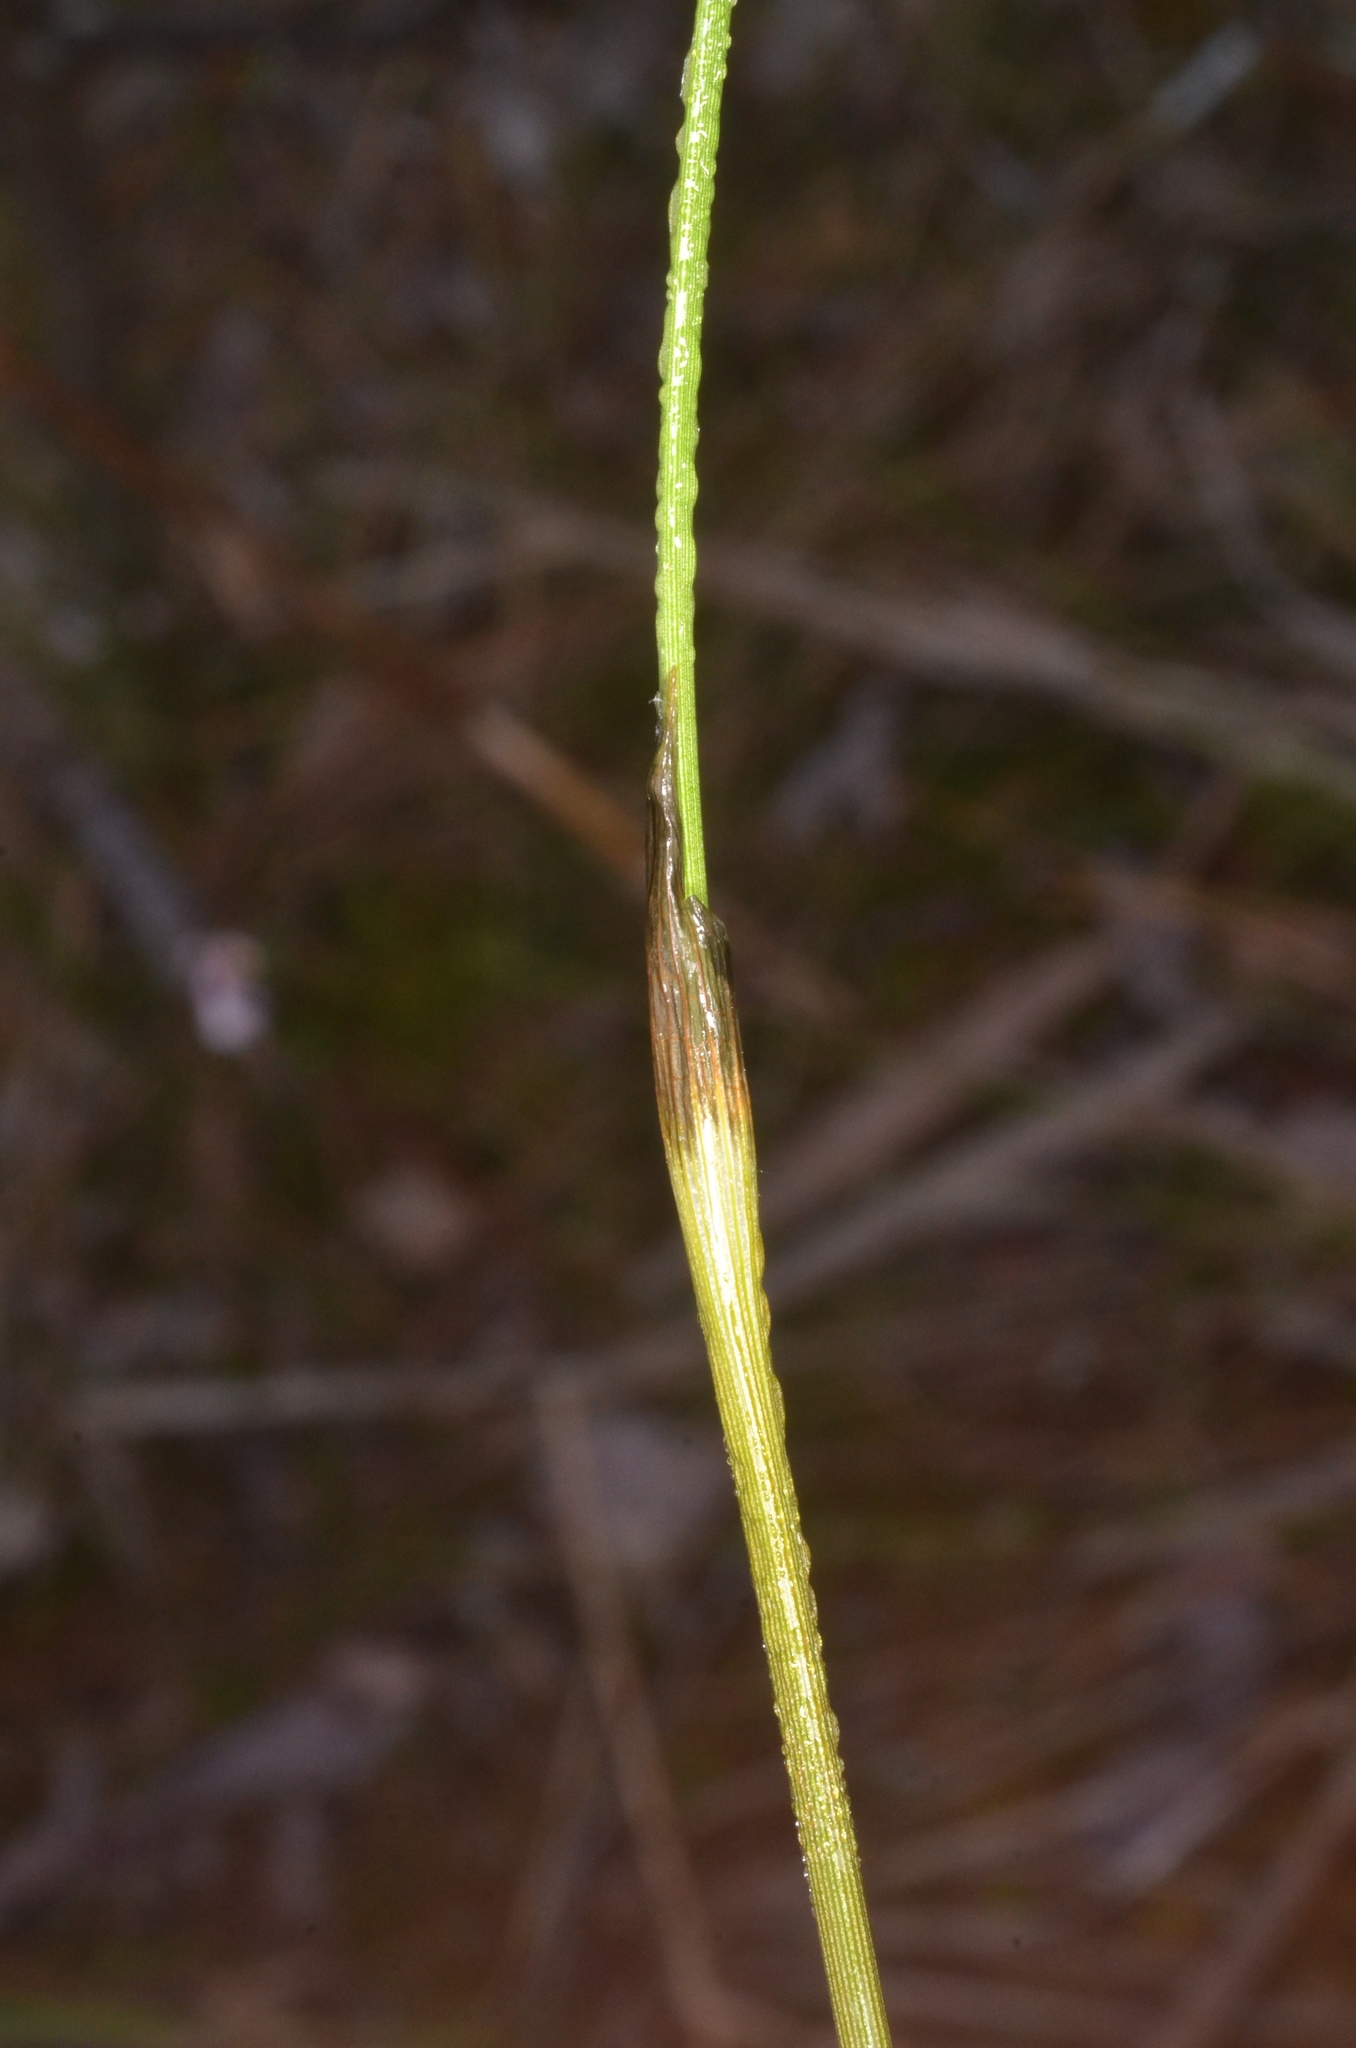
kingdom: Plantae
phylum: Tracheophyta
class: Liliopsida
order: Poales
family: Cyperaceae
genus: Eriophorum
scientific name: Eriophorum vaginatum
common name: Hare's-tail cottongrass
